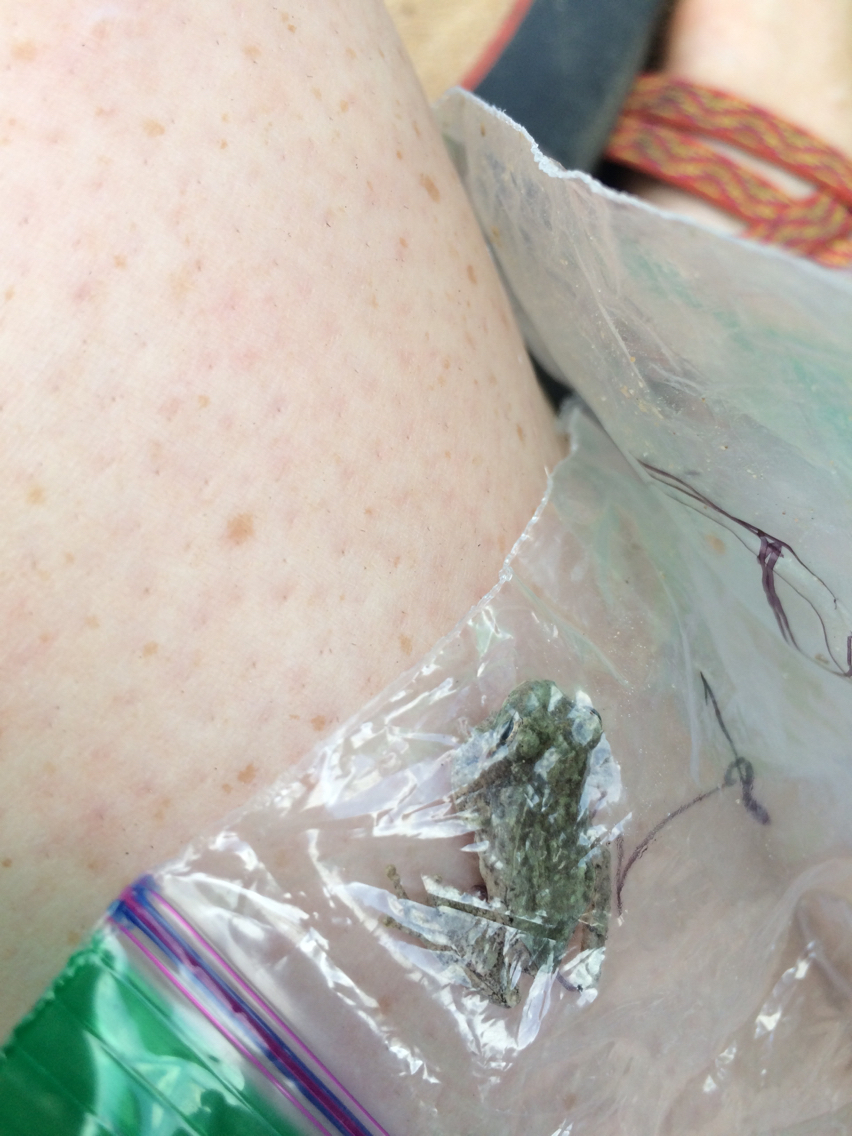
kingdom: Animalia
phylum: Chordata
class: Amphibia
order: Anura
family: Hylidae
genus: Hyla
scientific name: Hyla
